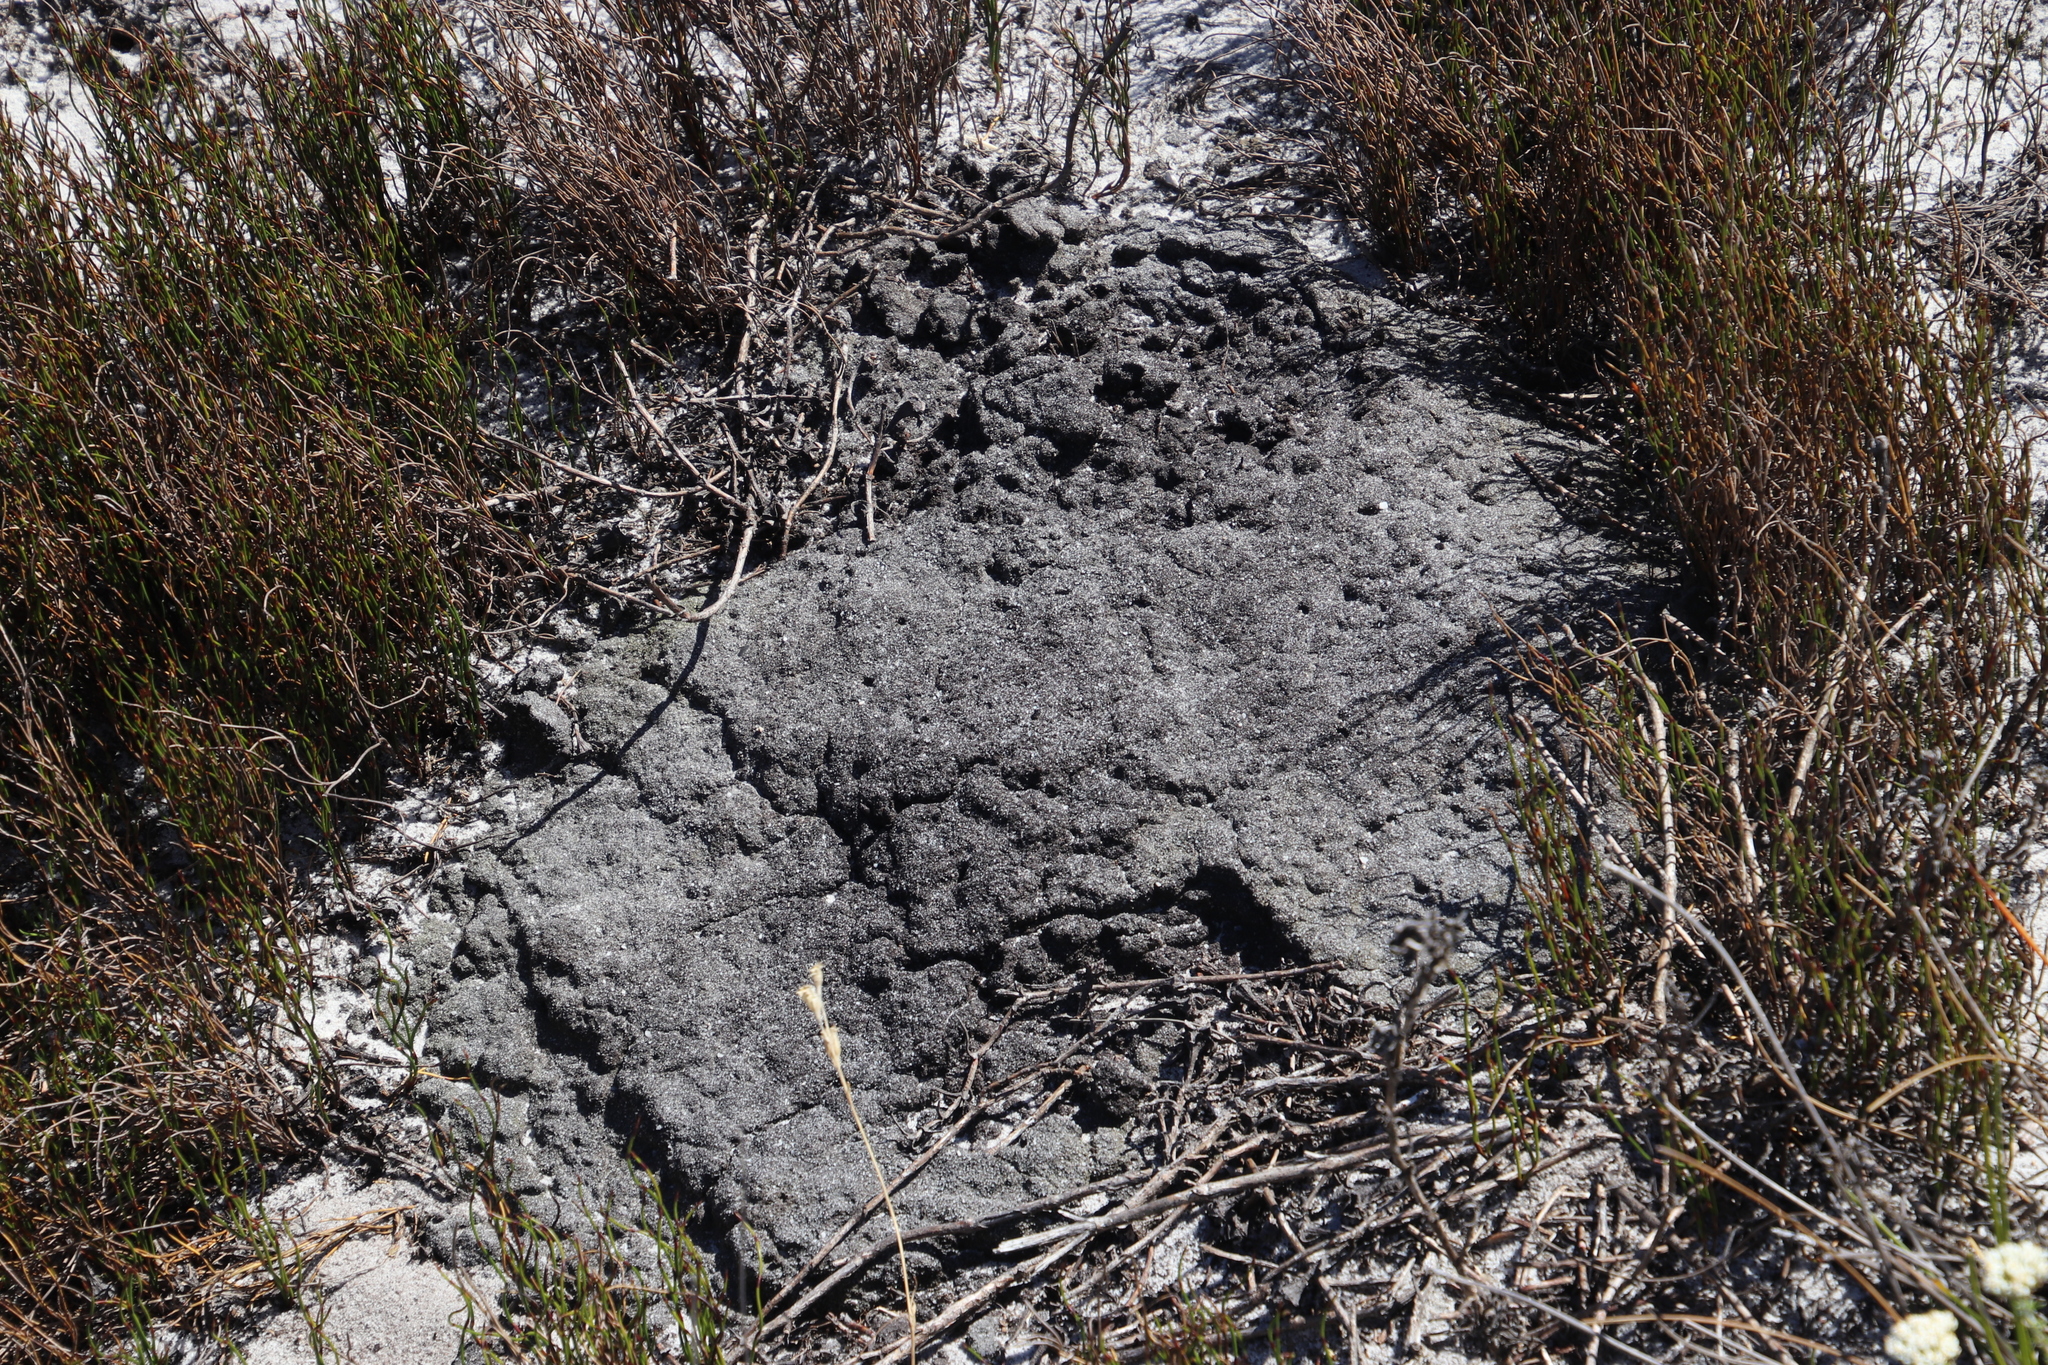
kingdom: Animalia
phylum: Arthropoda
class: Insecta
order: Blattodea
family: Termitidae
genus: Amitermes
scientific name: Amitermes hastatus
